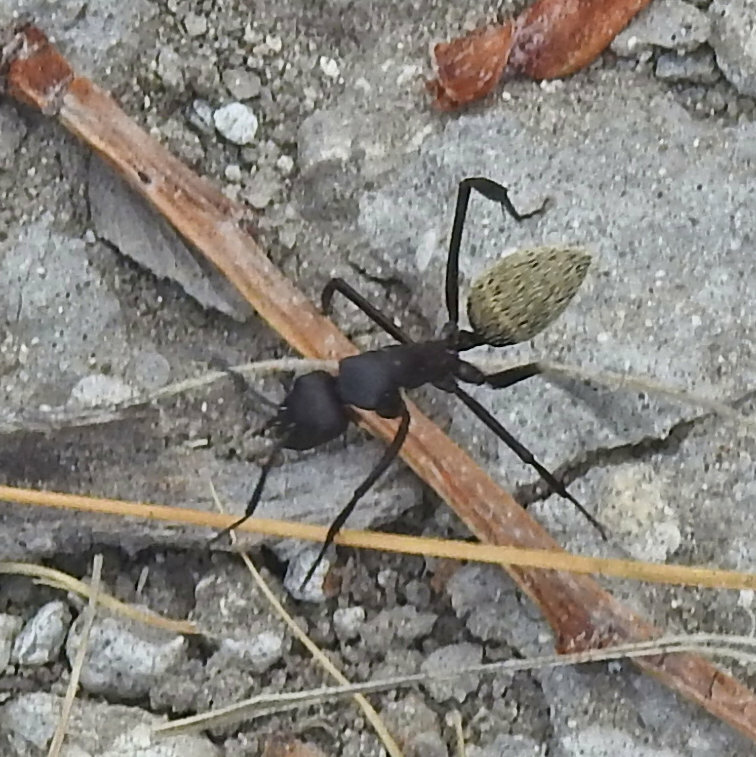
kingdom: Animalia
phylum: Arthropoda
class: Insecta
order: Hymenoptera
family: Formicidae
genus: Camponotus
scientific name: Camponotus fulvopilosus
